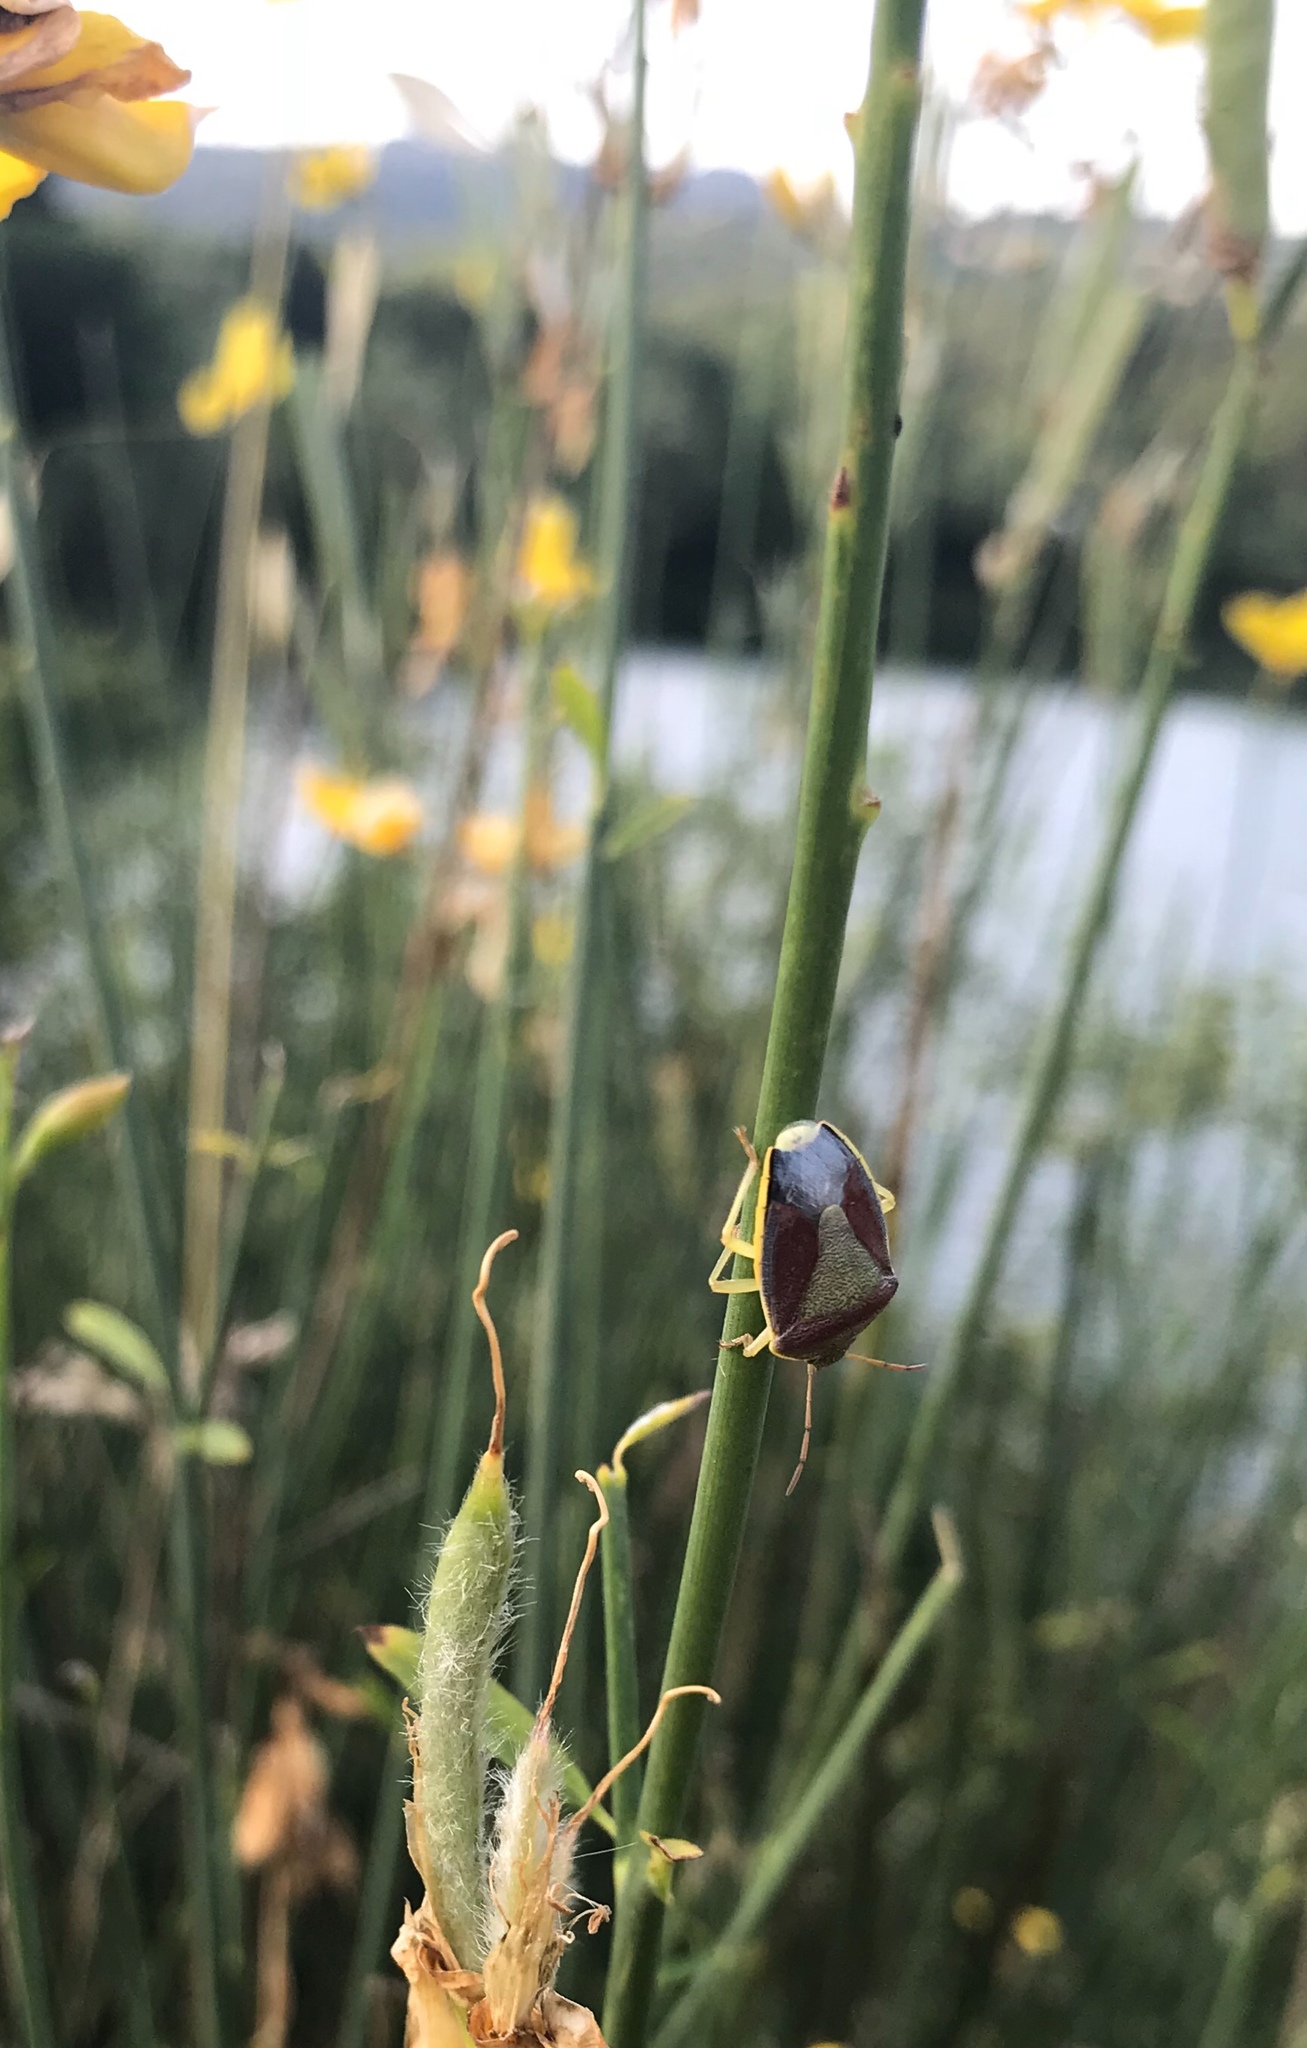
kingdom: Animalia
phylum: Arthropoda
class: Insecta
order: Hemiptera
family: Pentatomidae
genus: Piezodorus
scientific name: Piezodorus lituratus
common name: Stink bug
